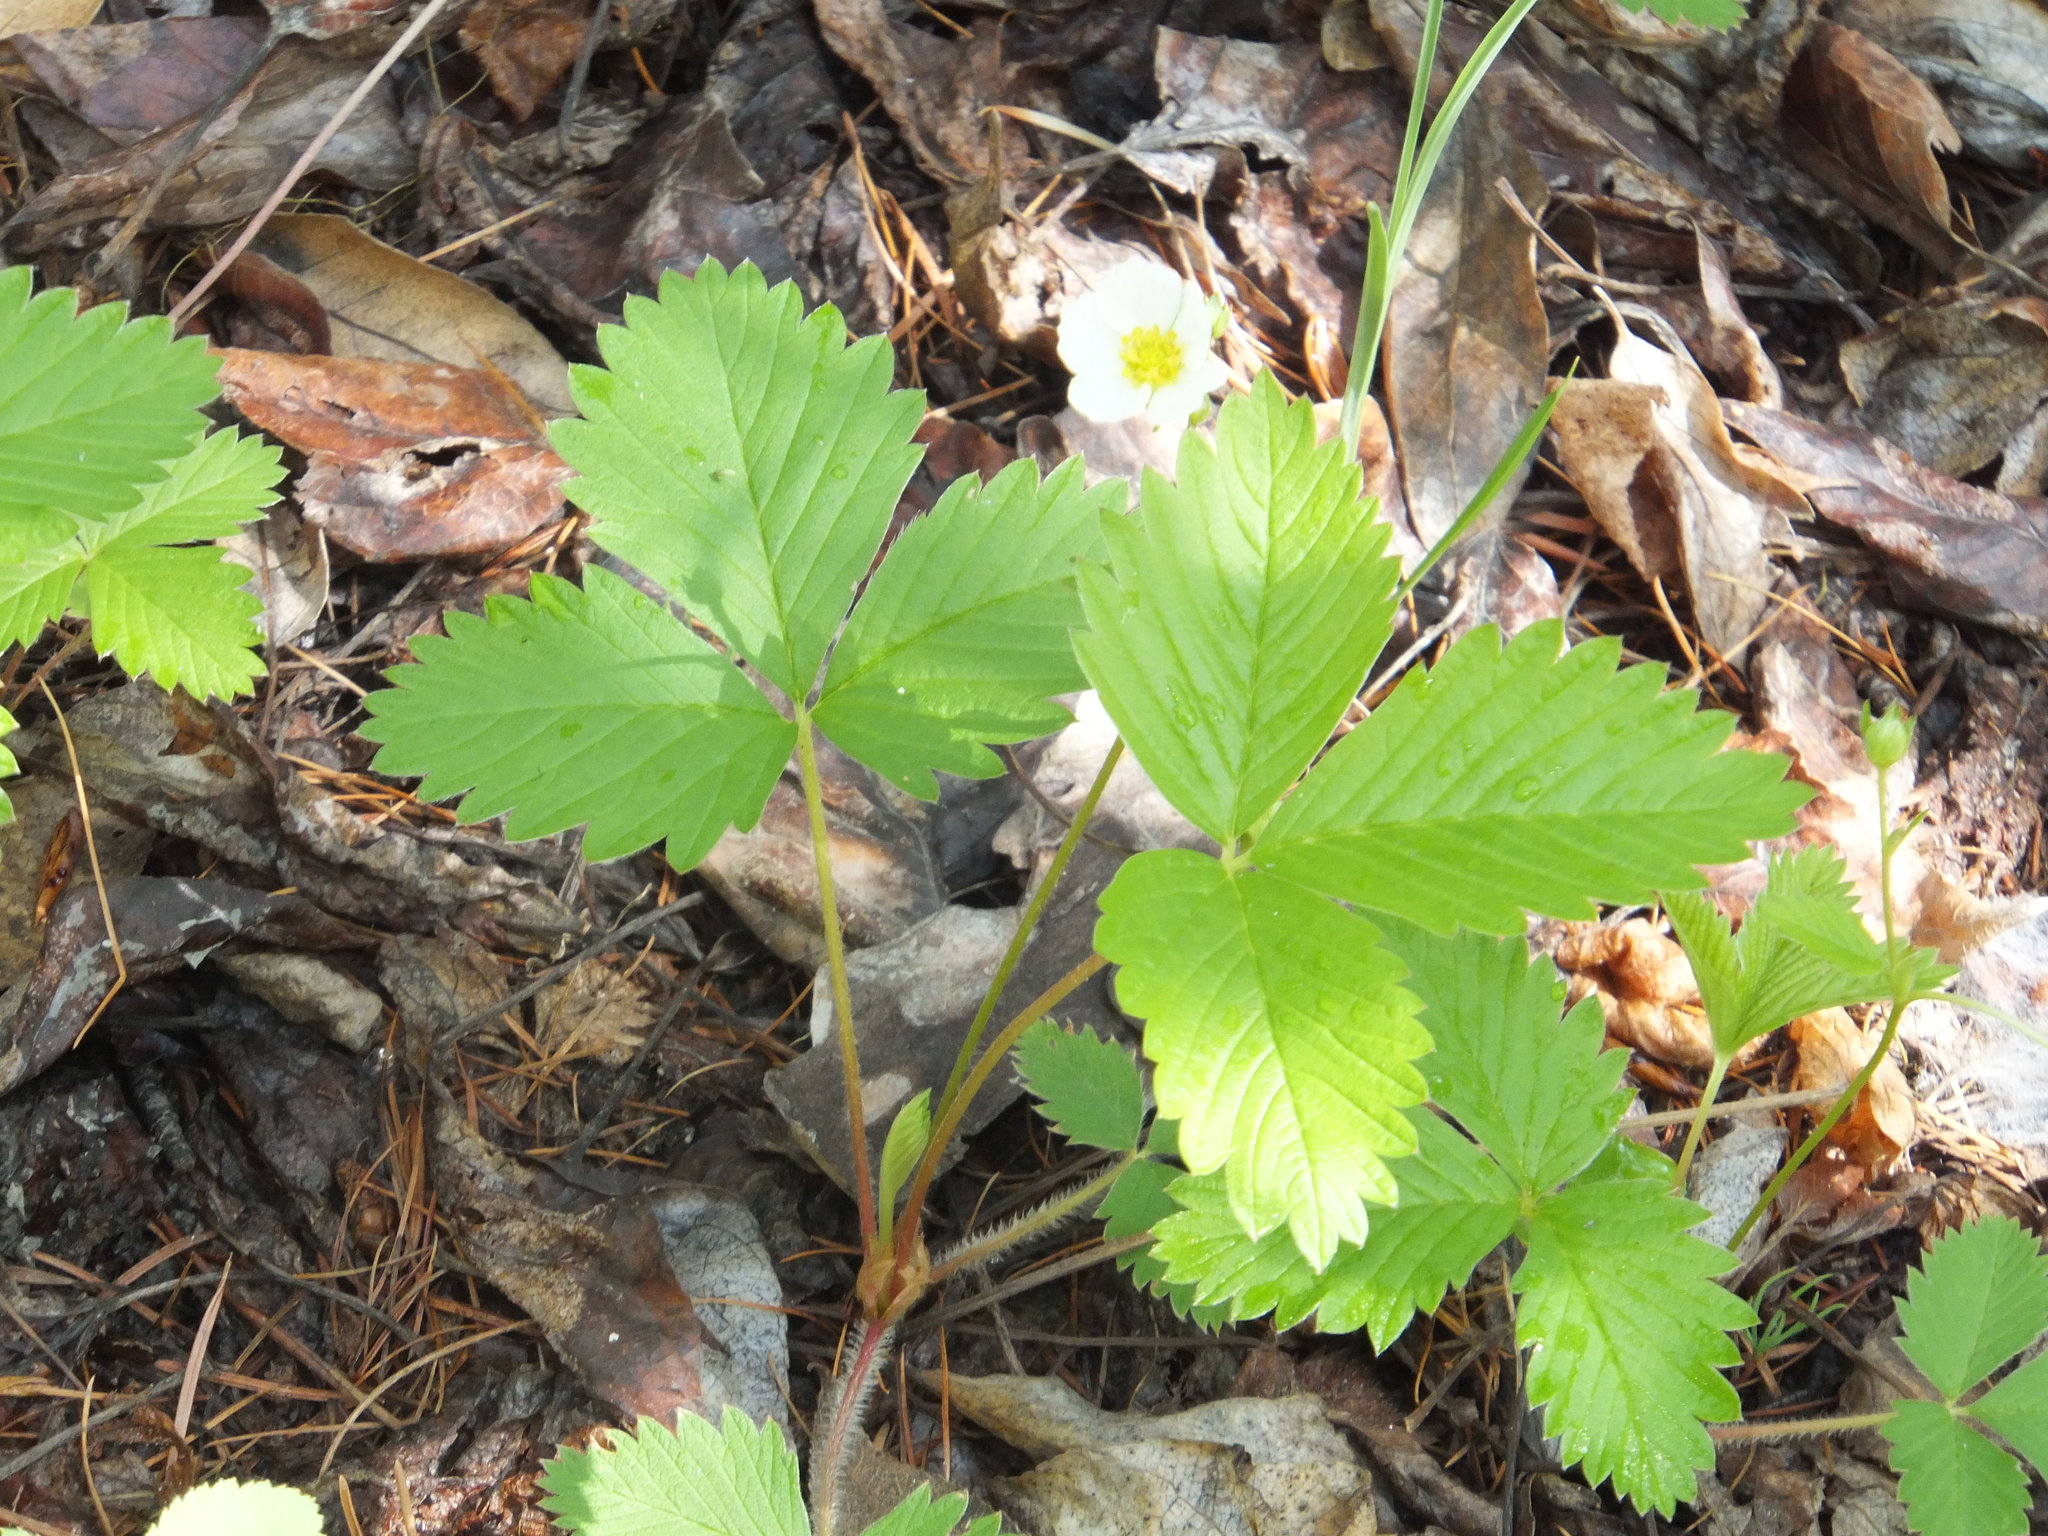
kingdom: Plantae
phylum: Tracheophyta
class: Magnoliopsida
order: Rosales
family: Rosaceae
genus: Fragaria
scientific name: Fragaria vesca
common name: Wild strawberry
